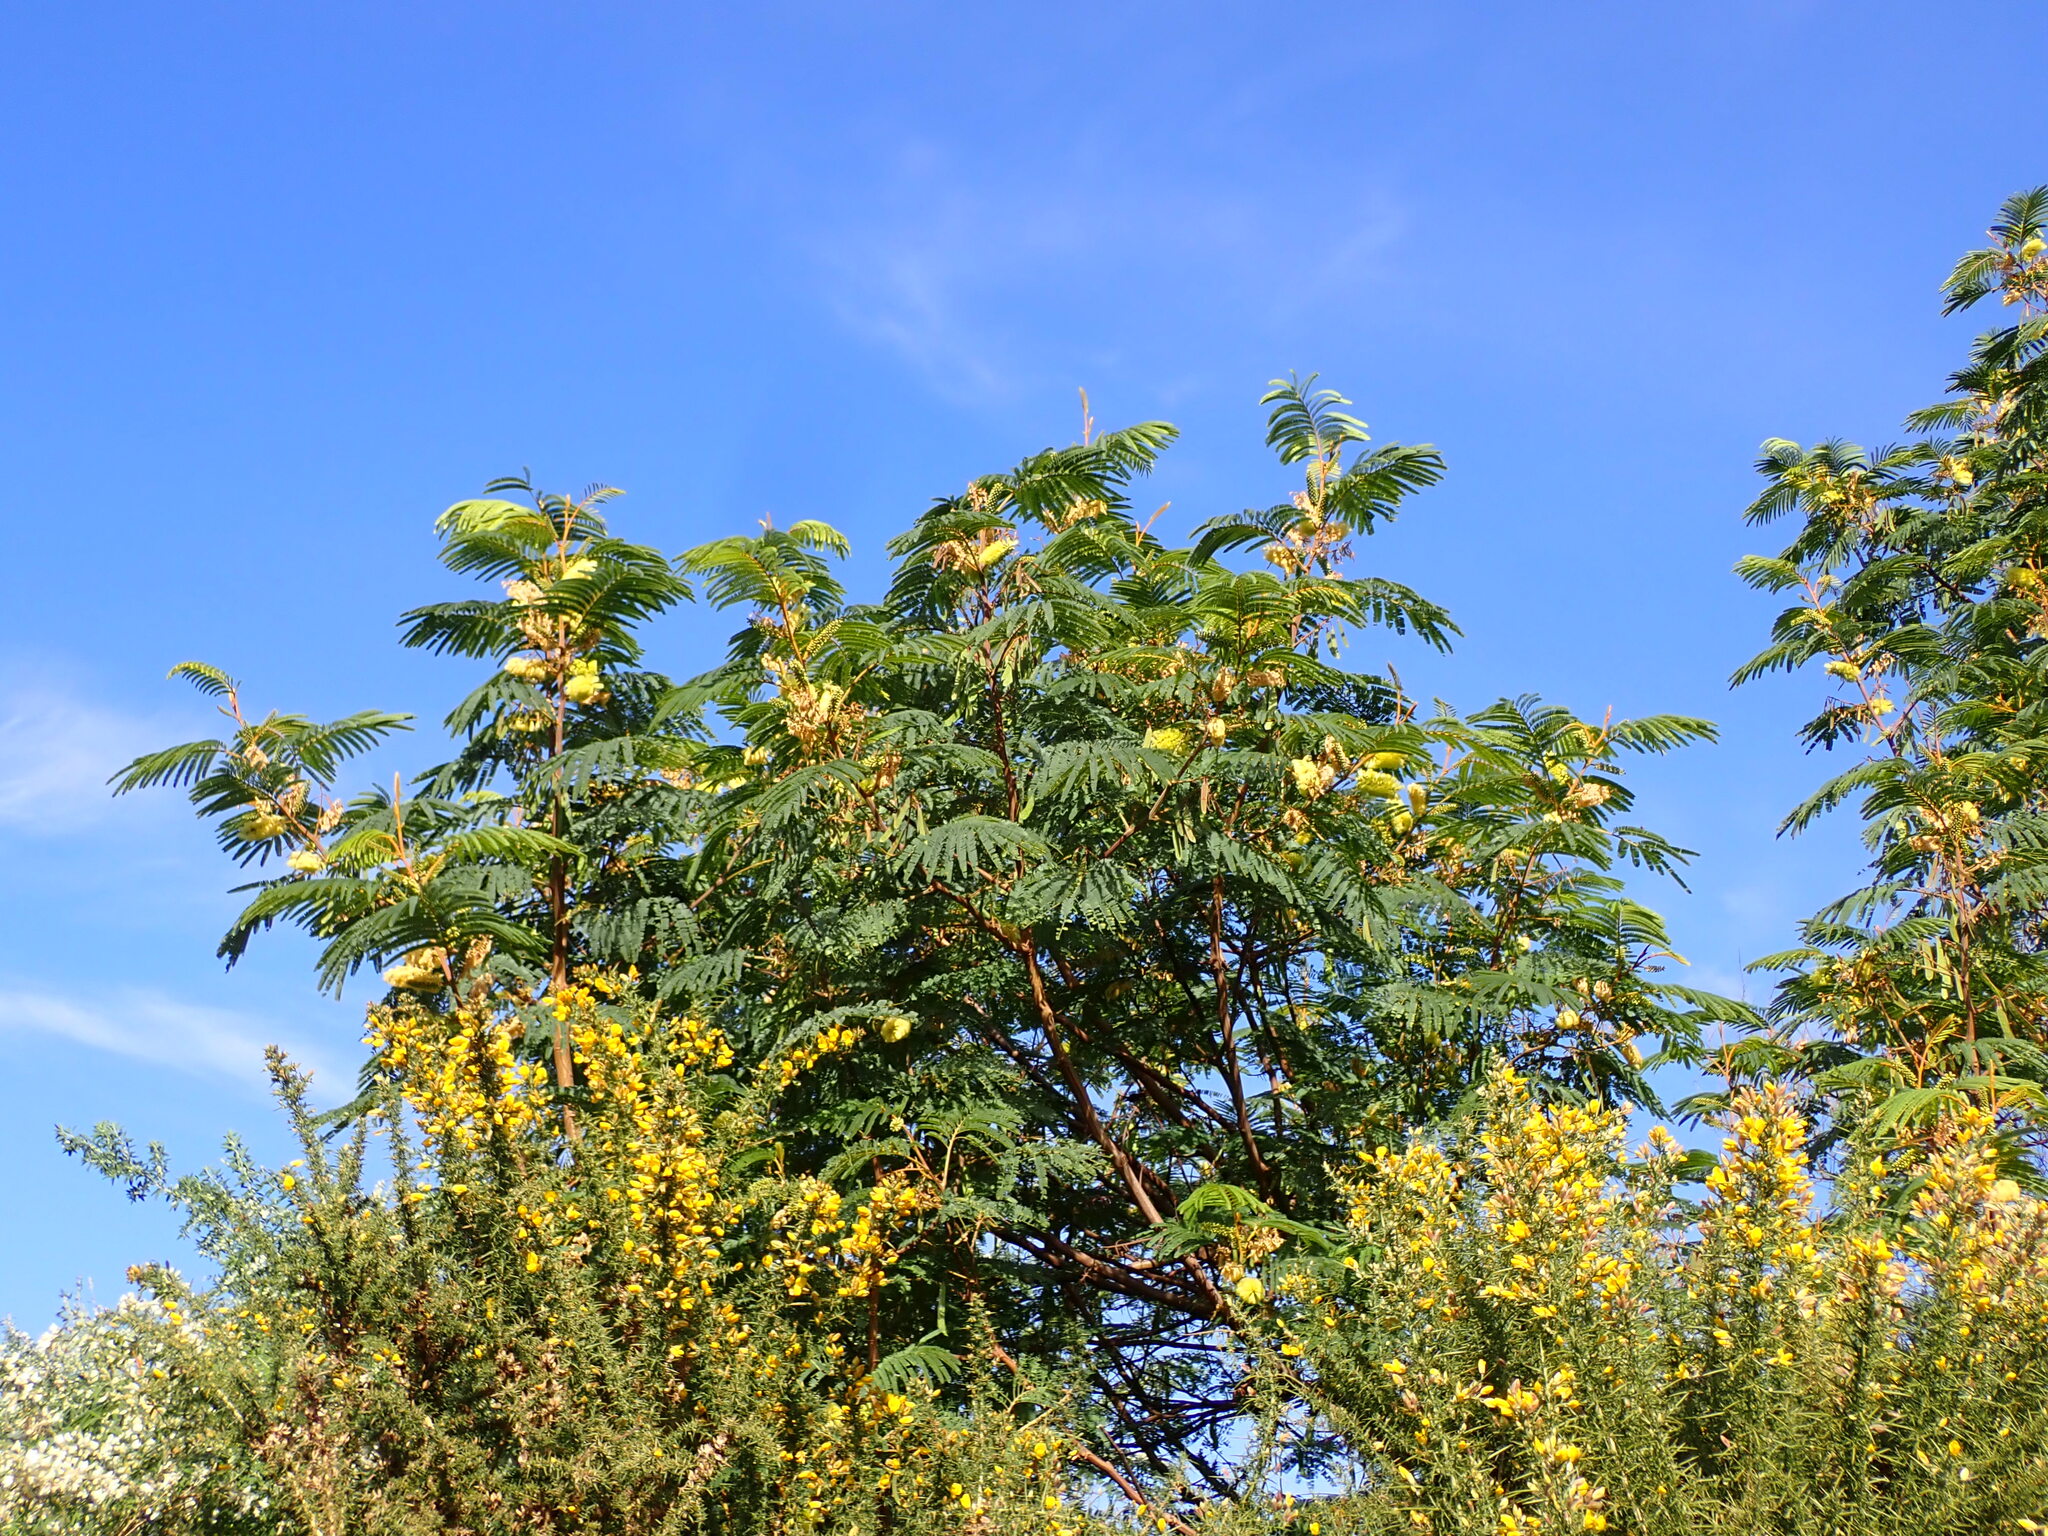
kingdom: Plantae
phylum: Tracheophyta
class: Magnoliopsida
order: Fabales
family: Fabaceae
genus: Paraserianthes
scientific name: Paraserianthes lophantha
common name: Plume albizia
